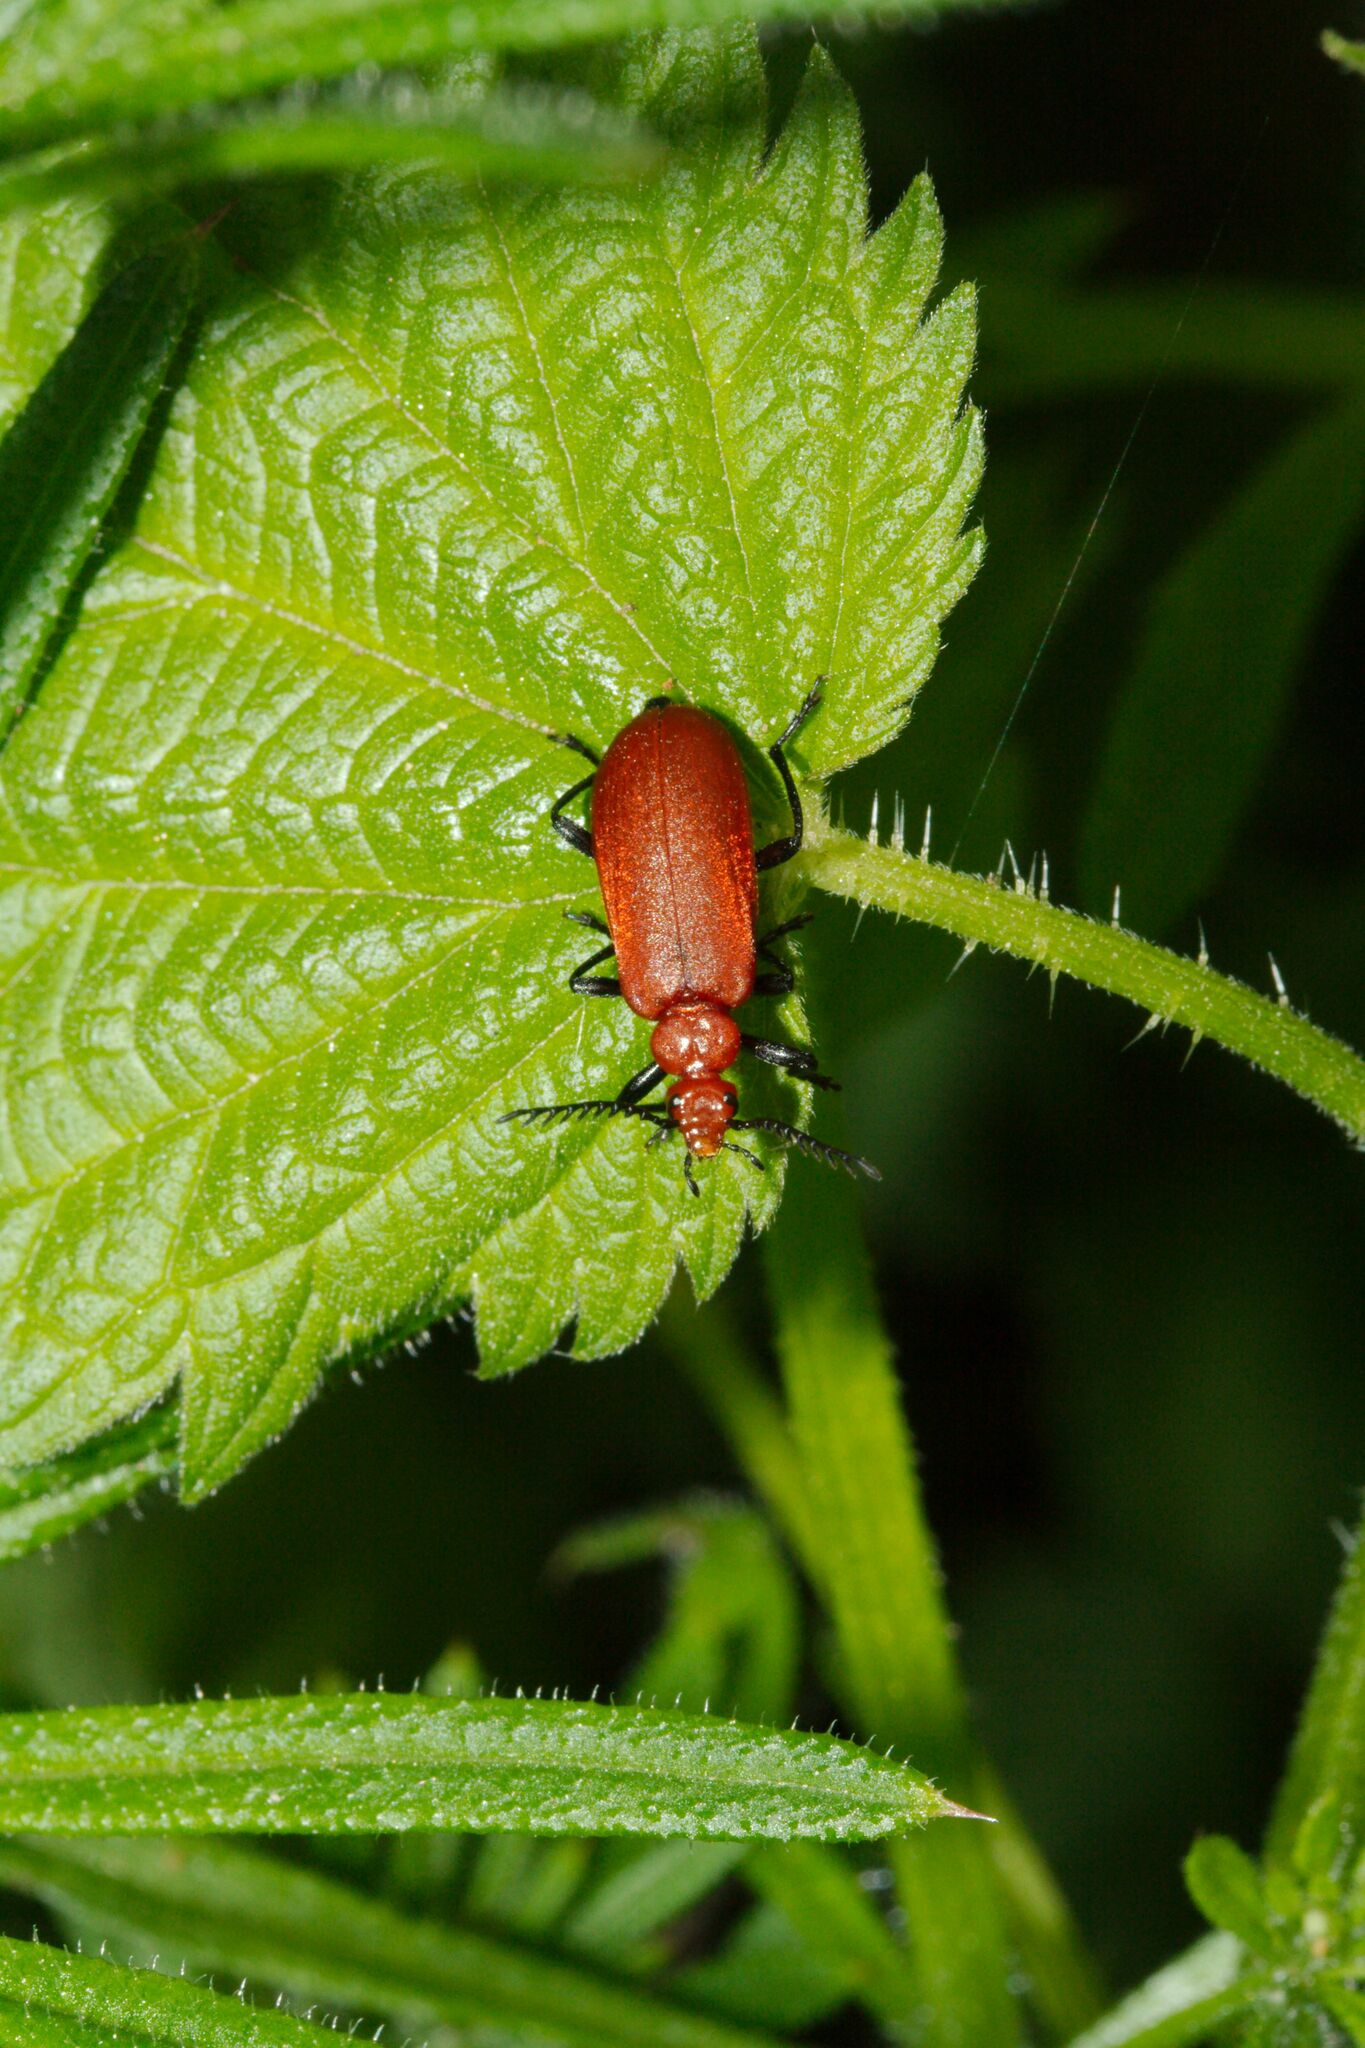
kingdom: Animalia
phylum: Arthropoda
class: Insecta
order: Coleoptera
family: Pyrochroidae
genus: Pyrochroa
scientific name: Pyrochroa serraticornis
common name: Red-headed cardinal beetle
